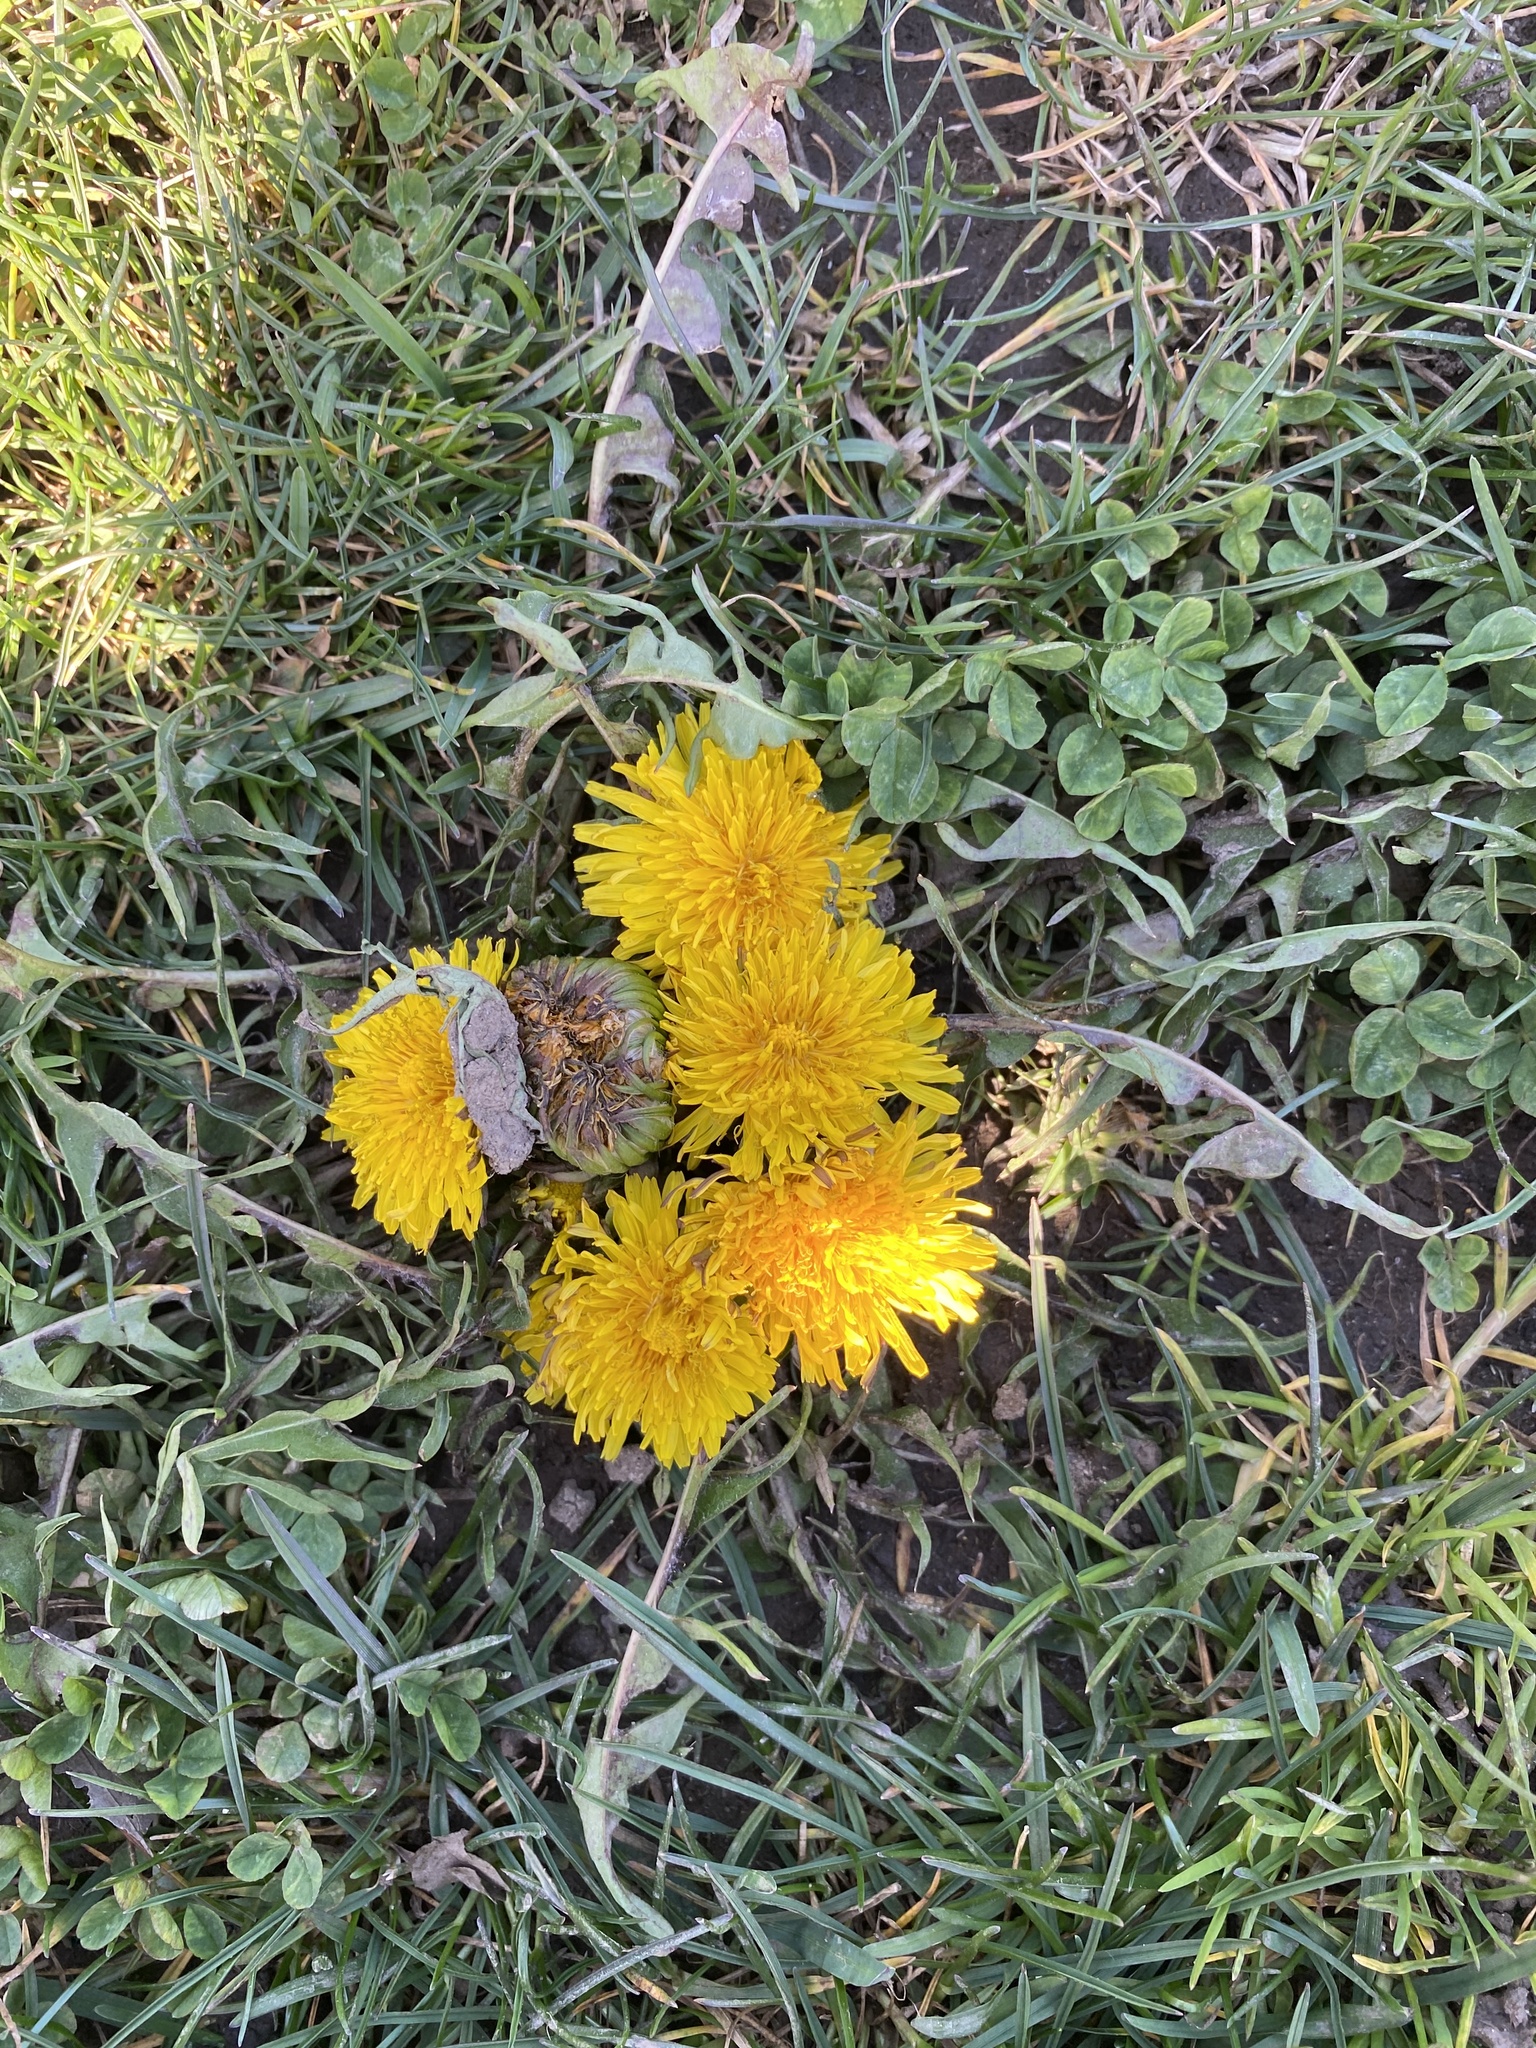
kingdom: Plantae
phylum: Tracheophyta
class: Magnoliopsida
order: Asterales
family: Asteraceae
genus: Taraxacum
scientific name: Taraxacum
